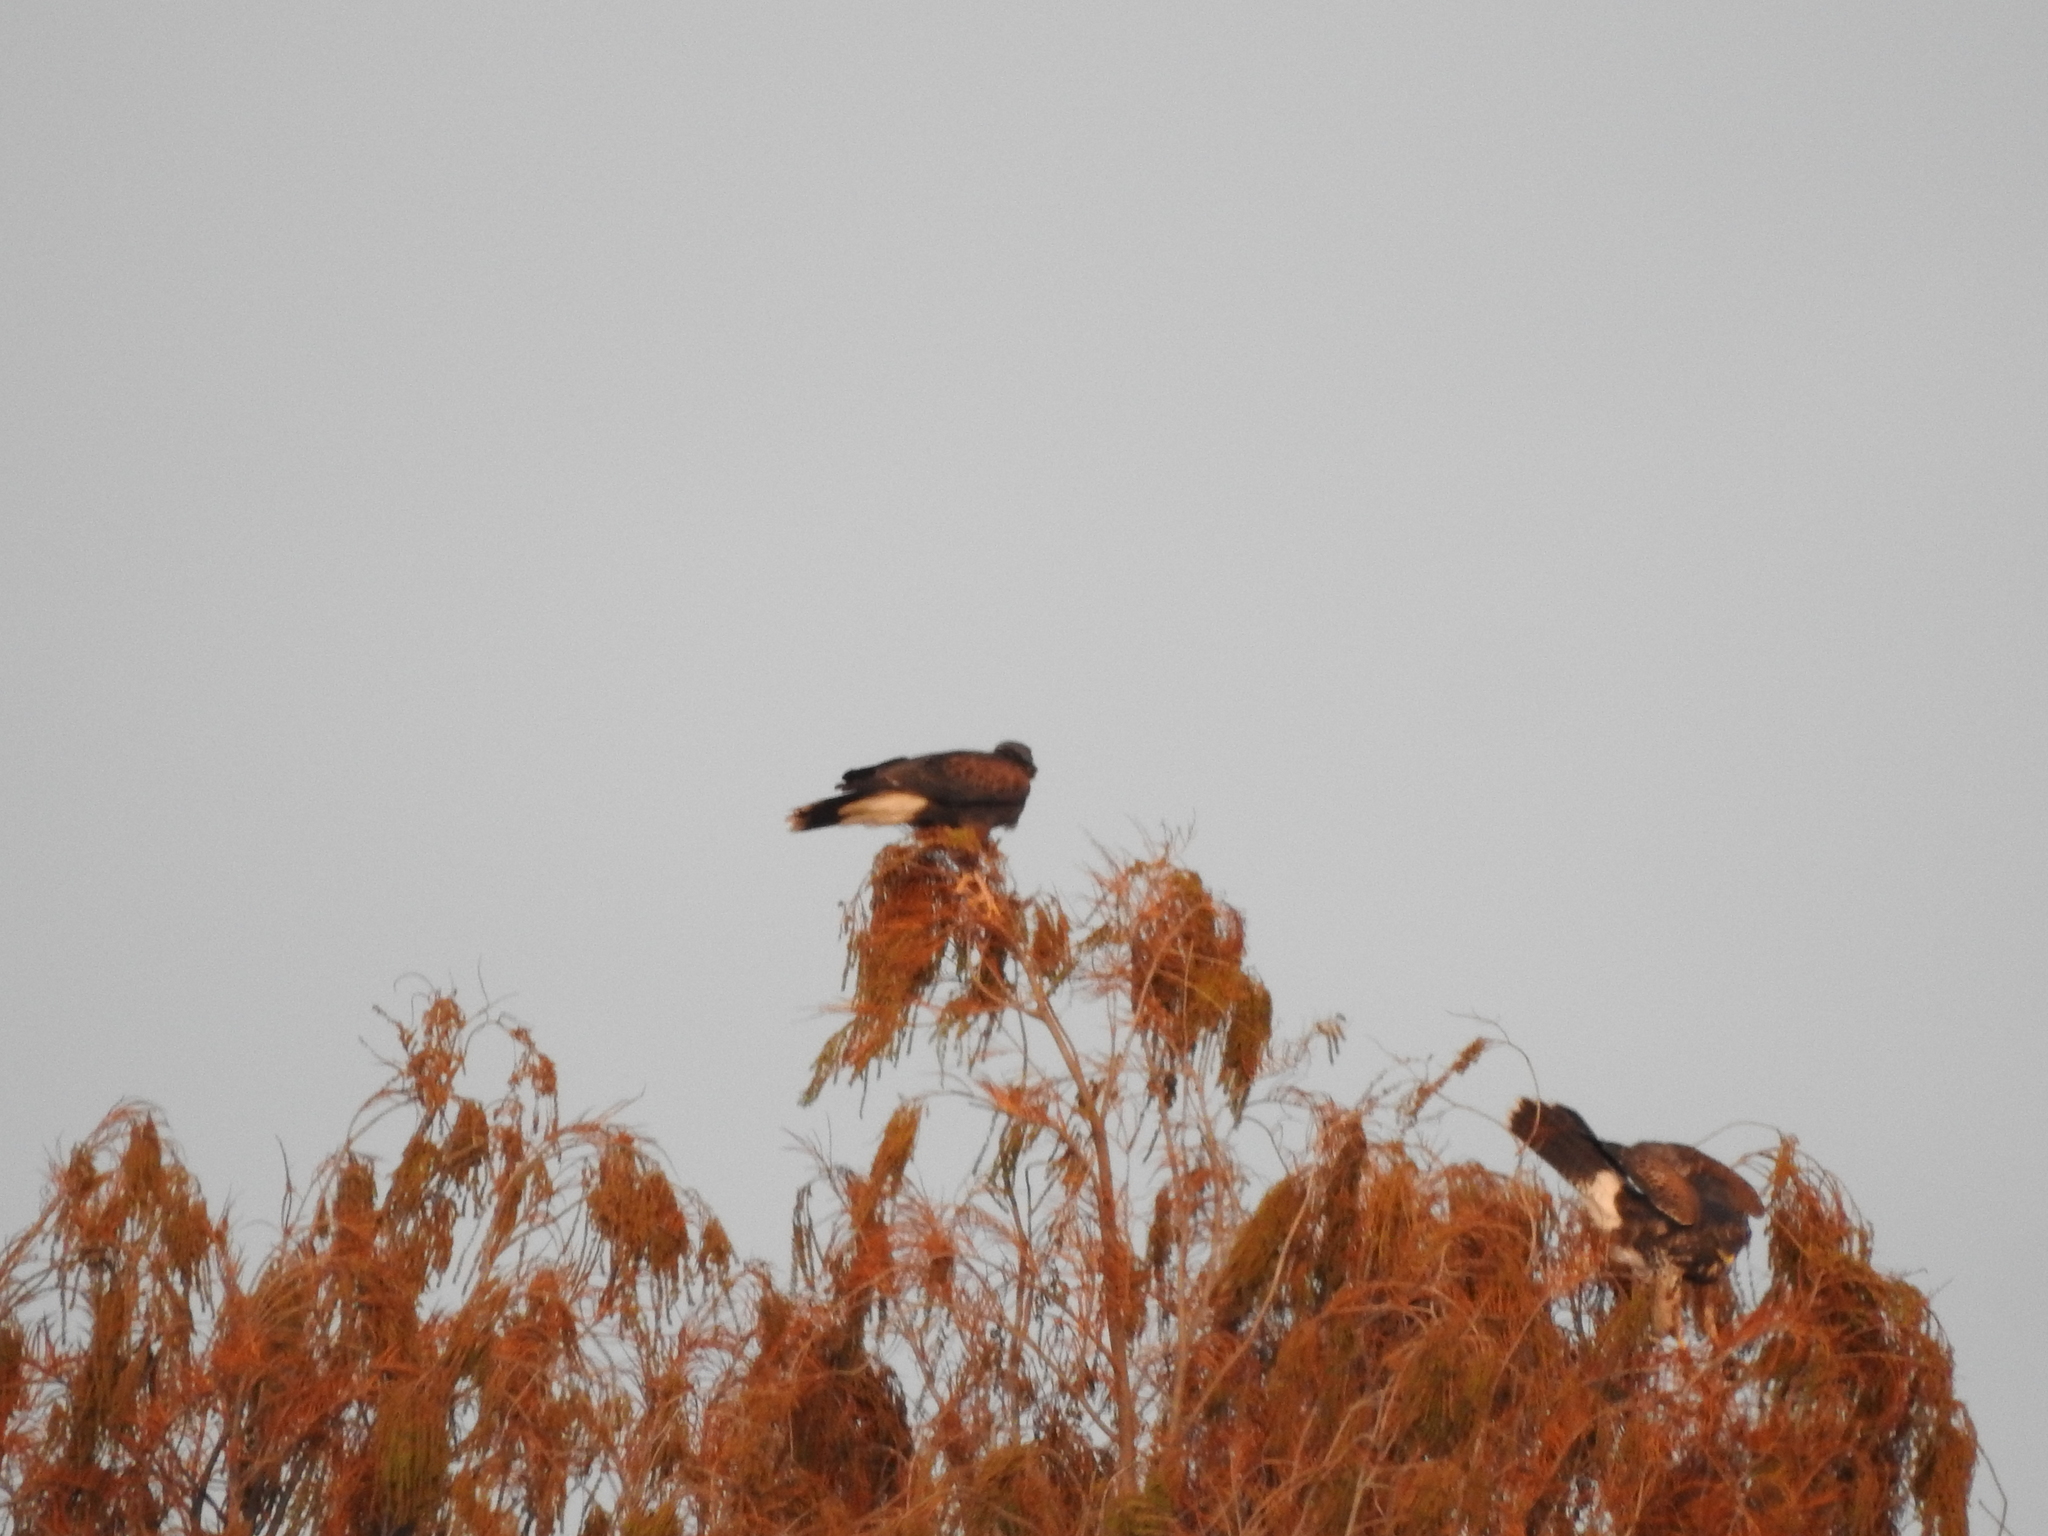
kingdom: Animalia
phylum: Chordata
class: Aves
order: Accipitriformes
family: Accipitridae
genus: Parabuteo
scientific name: Parabuteo unicinctus
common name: Harris's hawk
